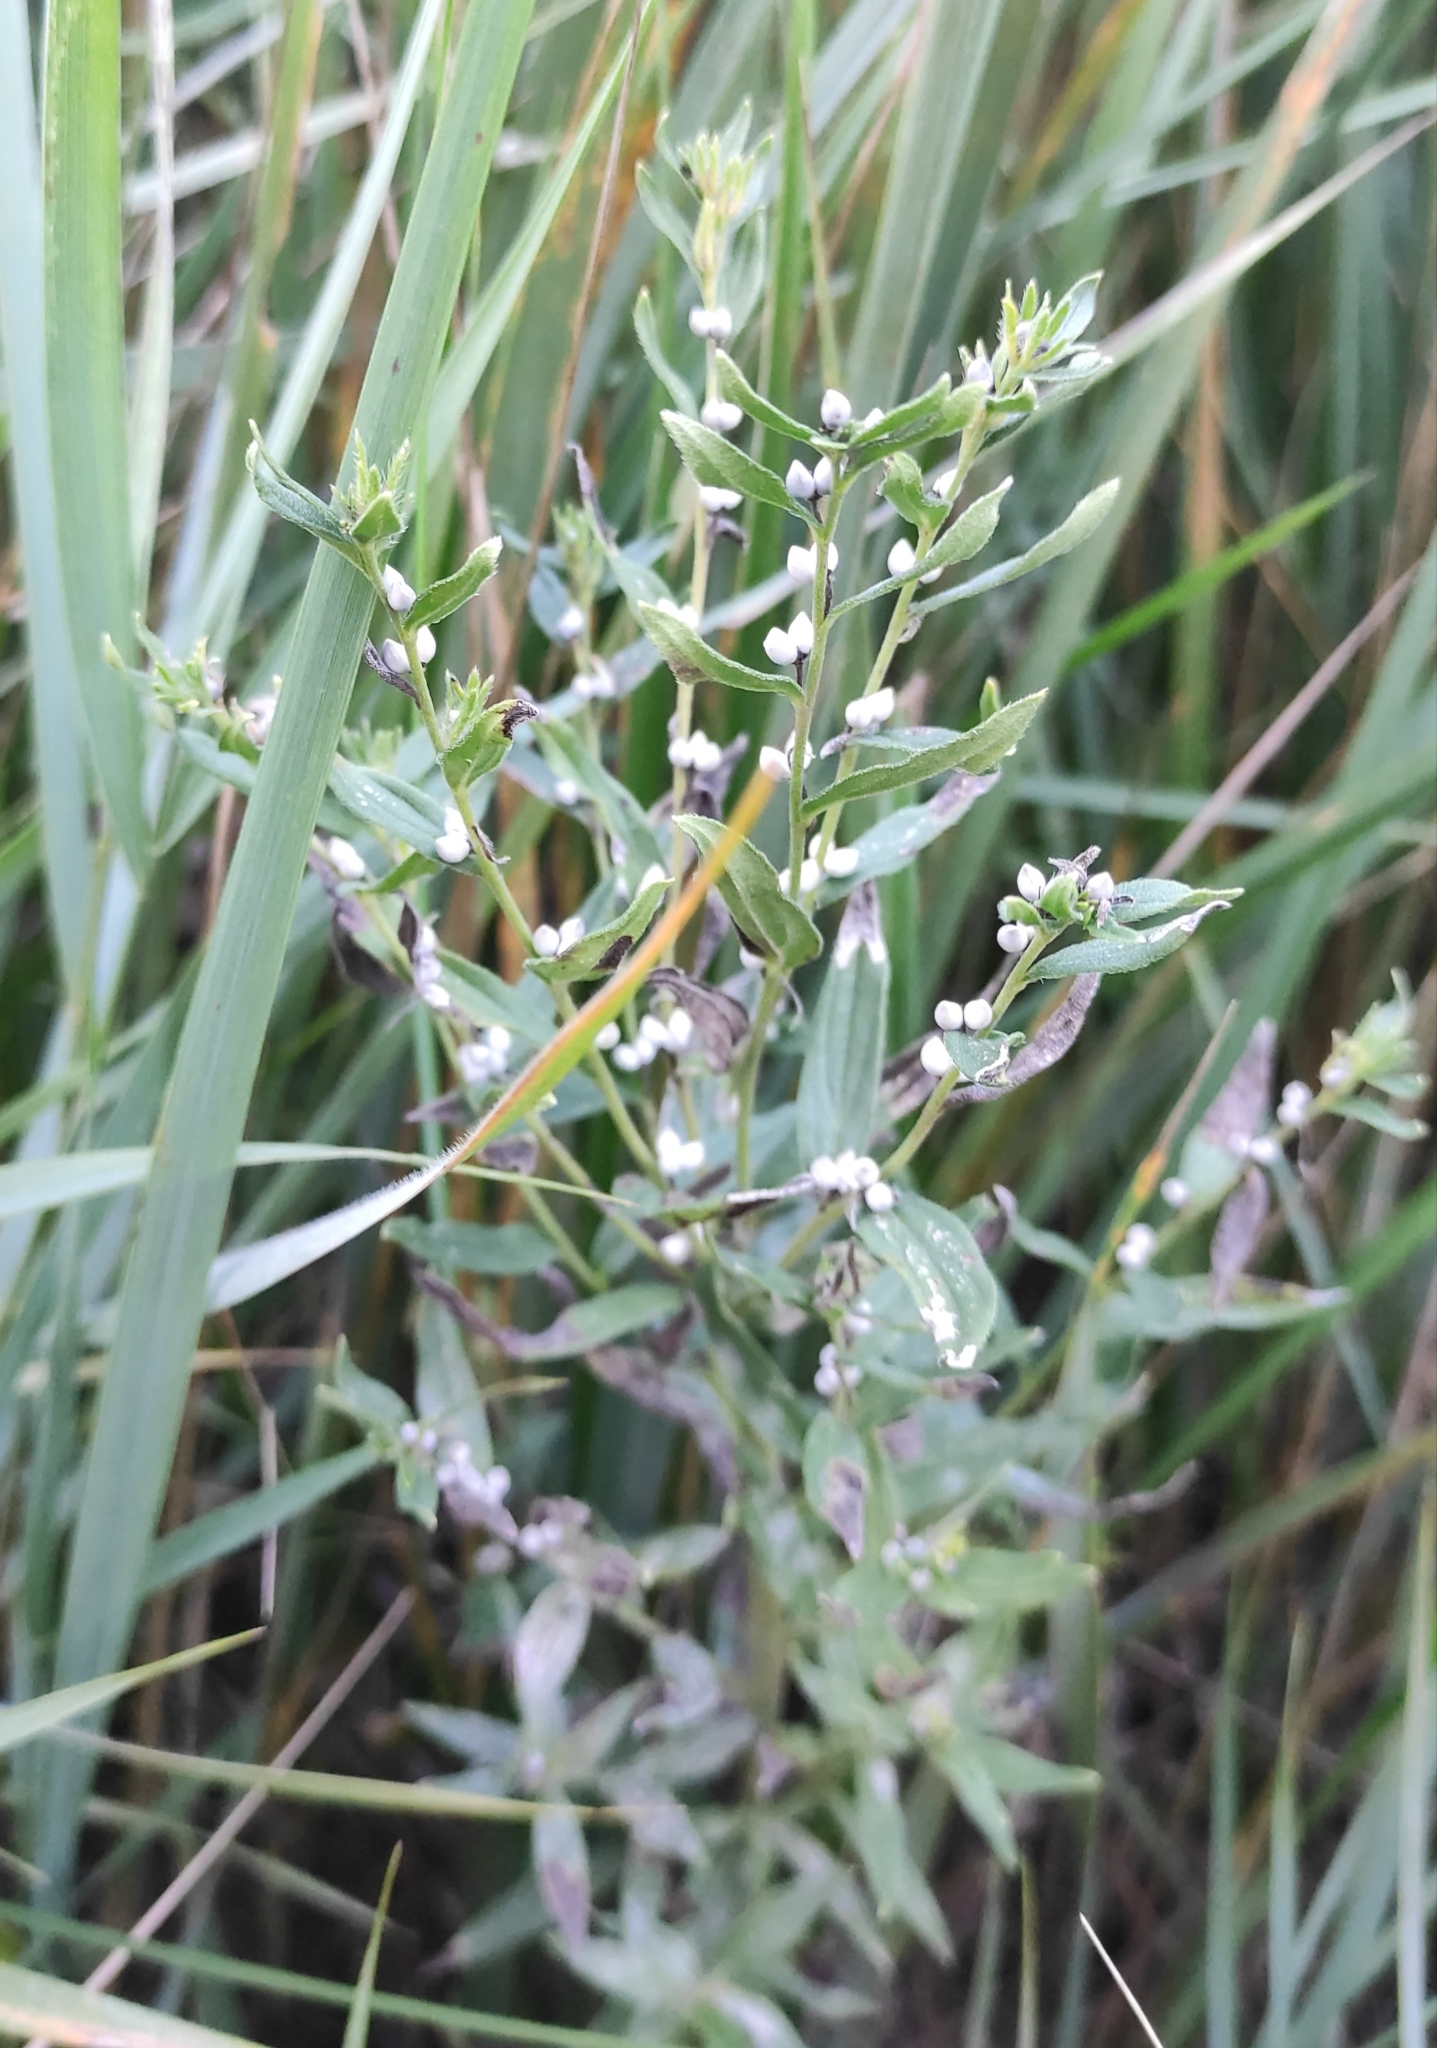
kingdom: Plantae
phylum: Tracheophyta
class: Magnoliopsida
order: Boraginales
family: Boraginaceae
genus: Lithospermum
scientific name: Lithospermum officinale
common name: Common gromwell
